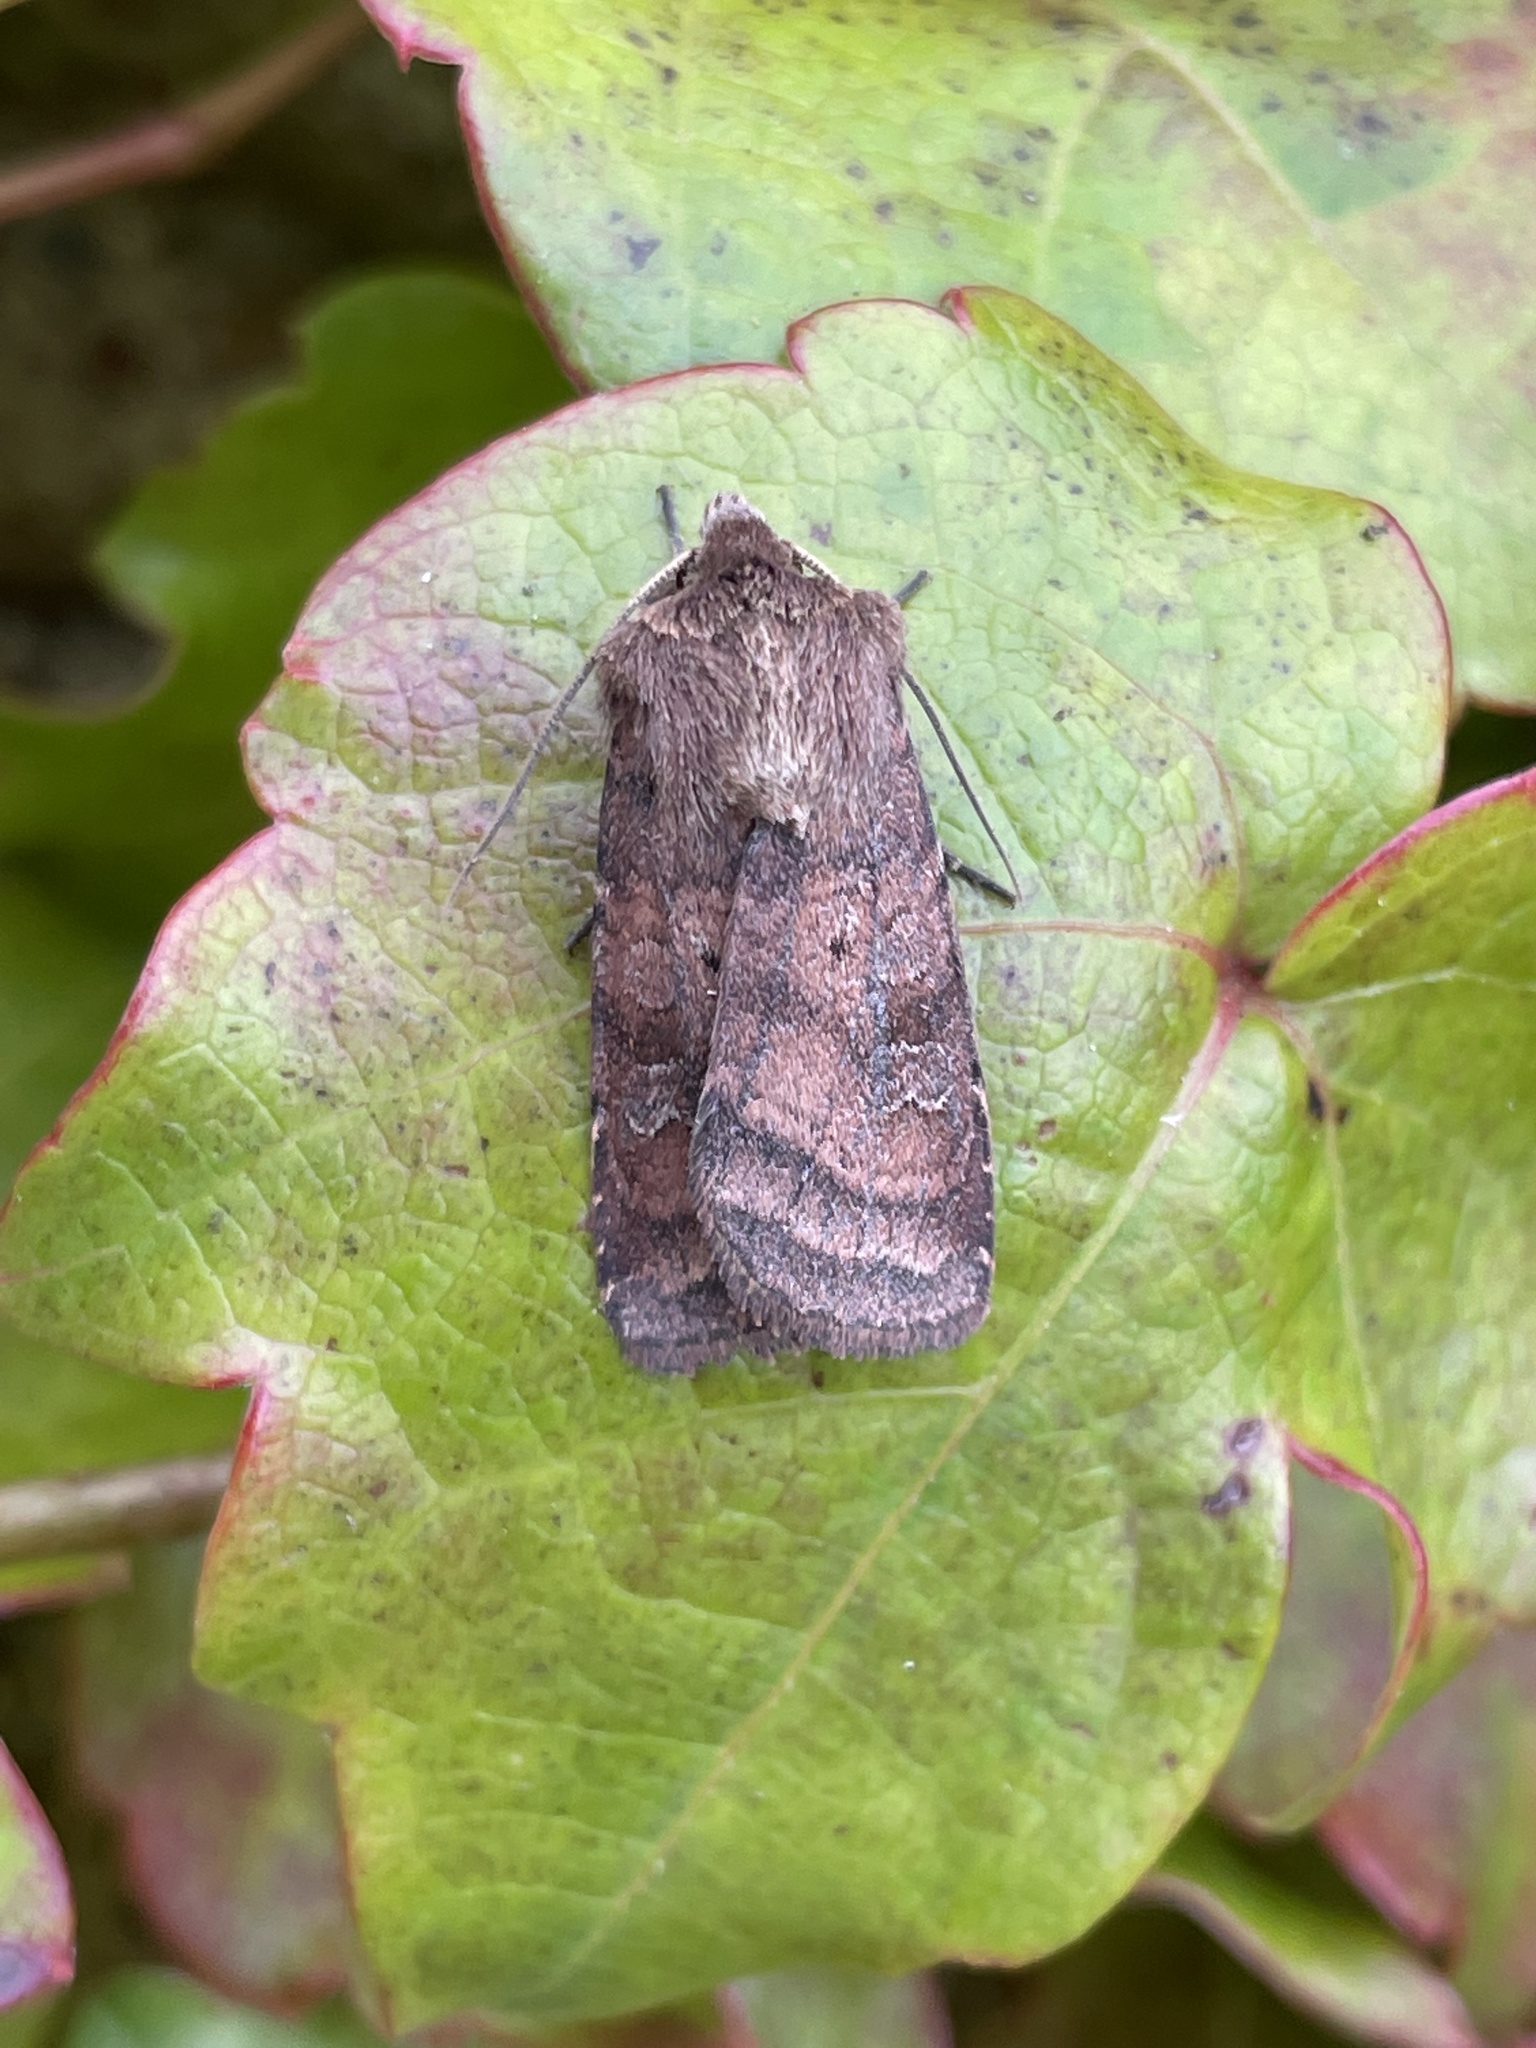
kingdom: Animalia
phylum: Arthropoda
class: Insecta
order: Lepidoptera
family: Noctuidae
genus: Diarsia
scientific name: Diarsia rubi
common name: Small square-spot
